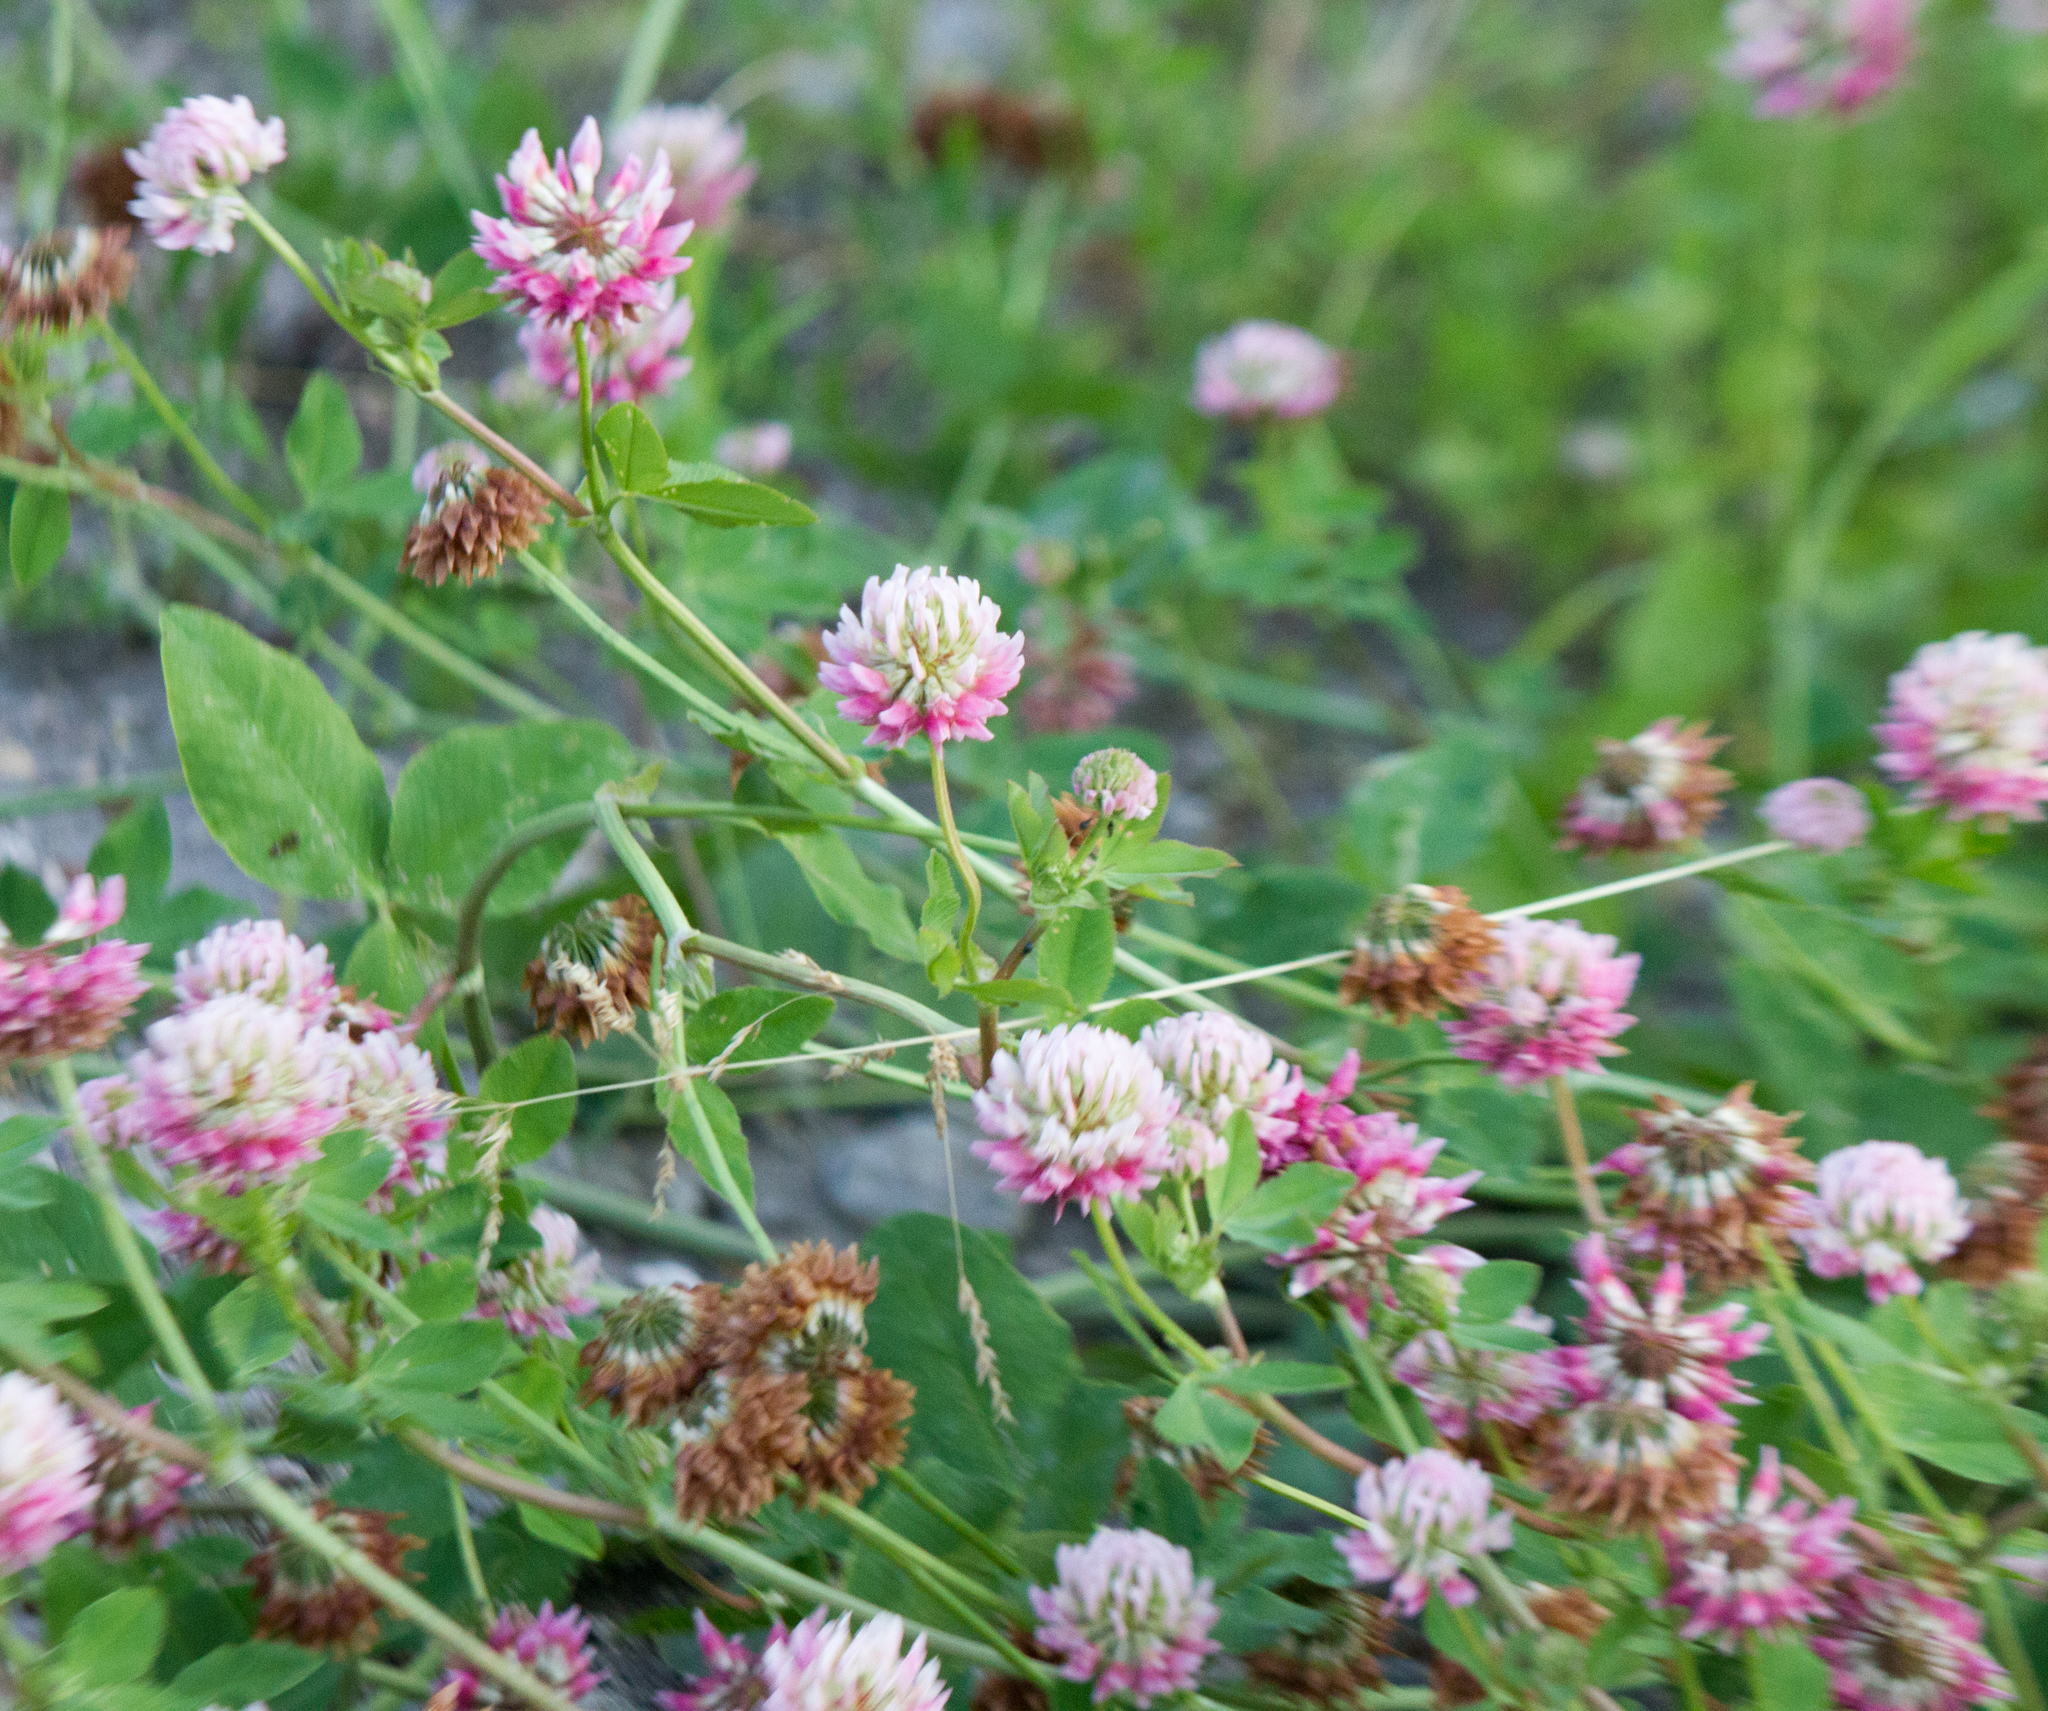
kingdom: Plantae
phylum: Tracheophyta
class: Magnoliopsida
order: Fabales
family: Fabaceae
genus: Trifolium
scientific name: Trifolium hybridum
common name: Alsike clover
